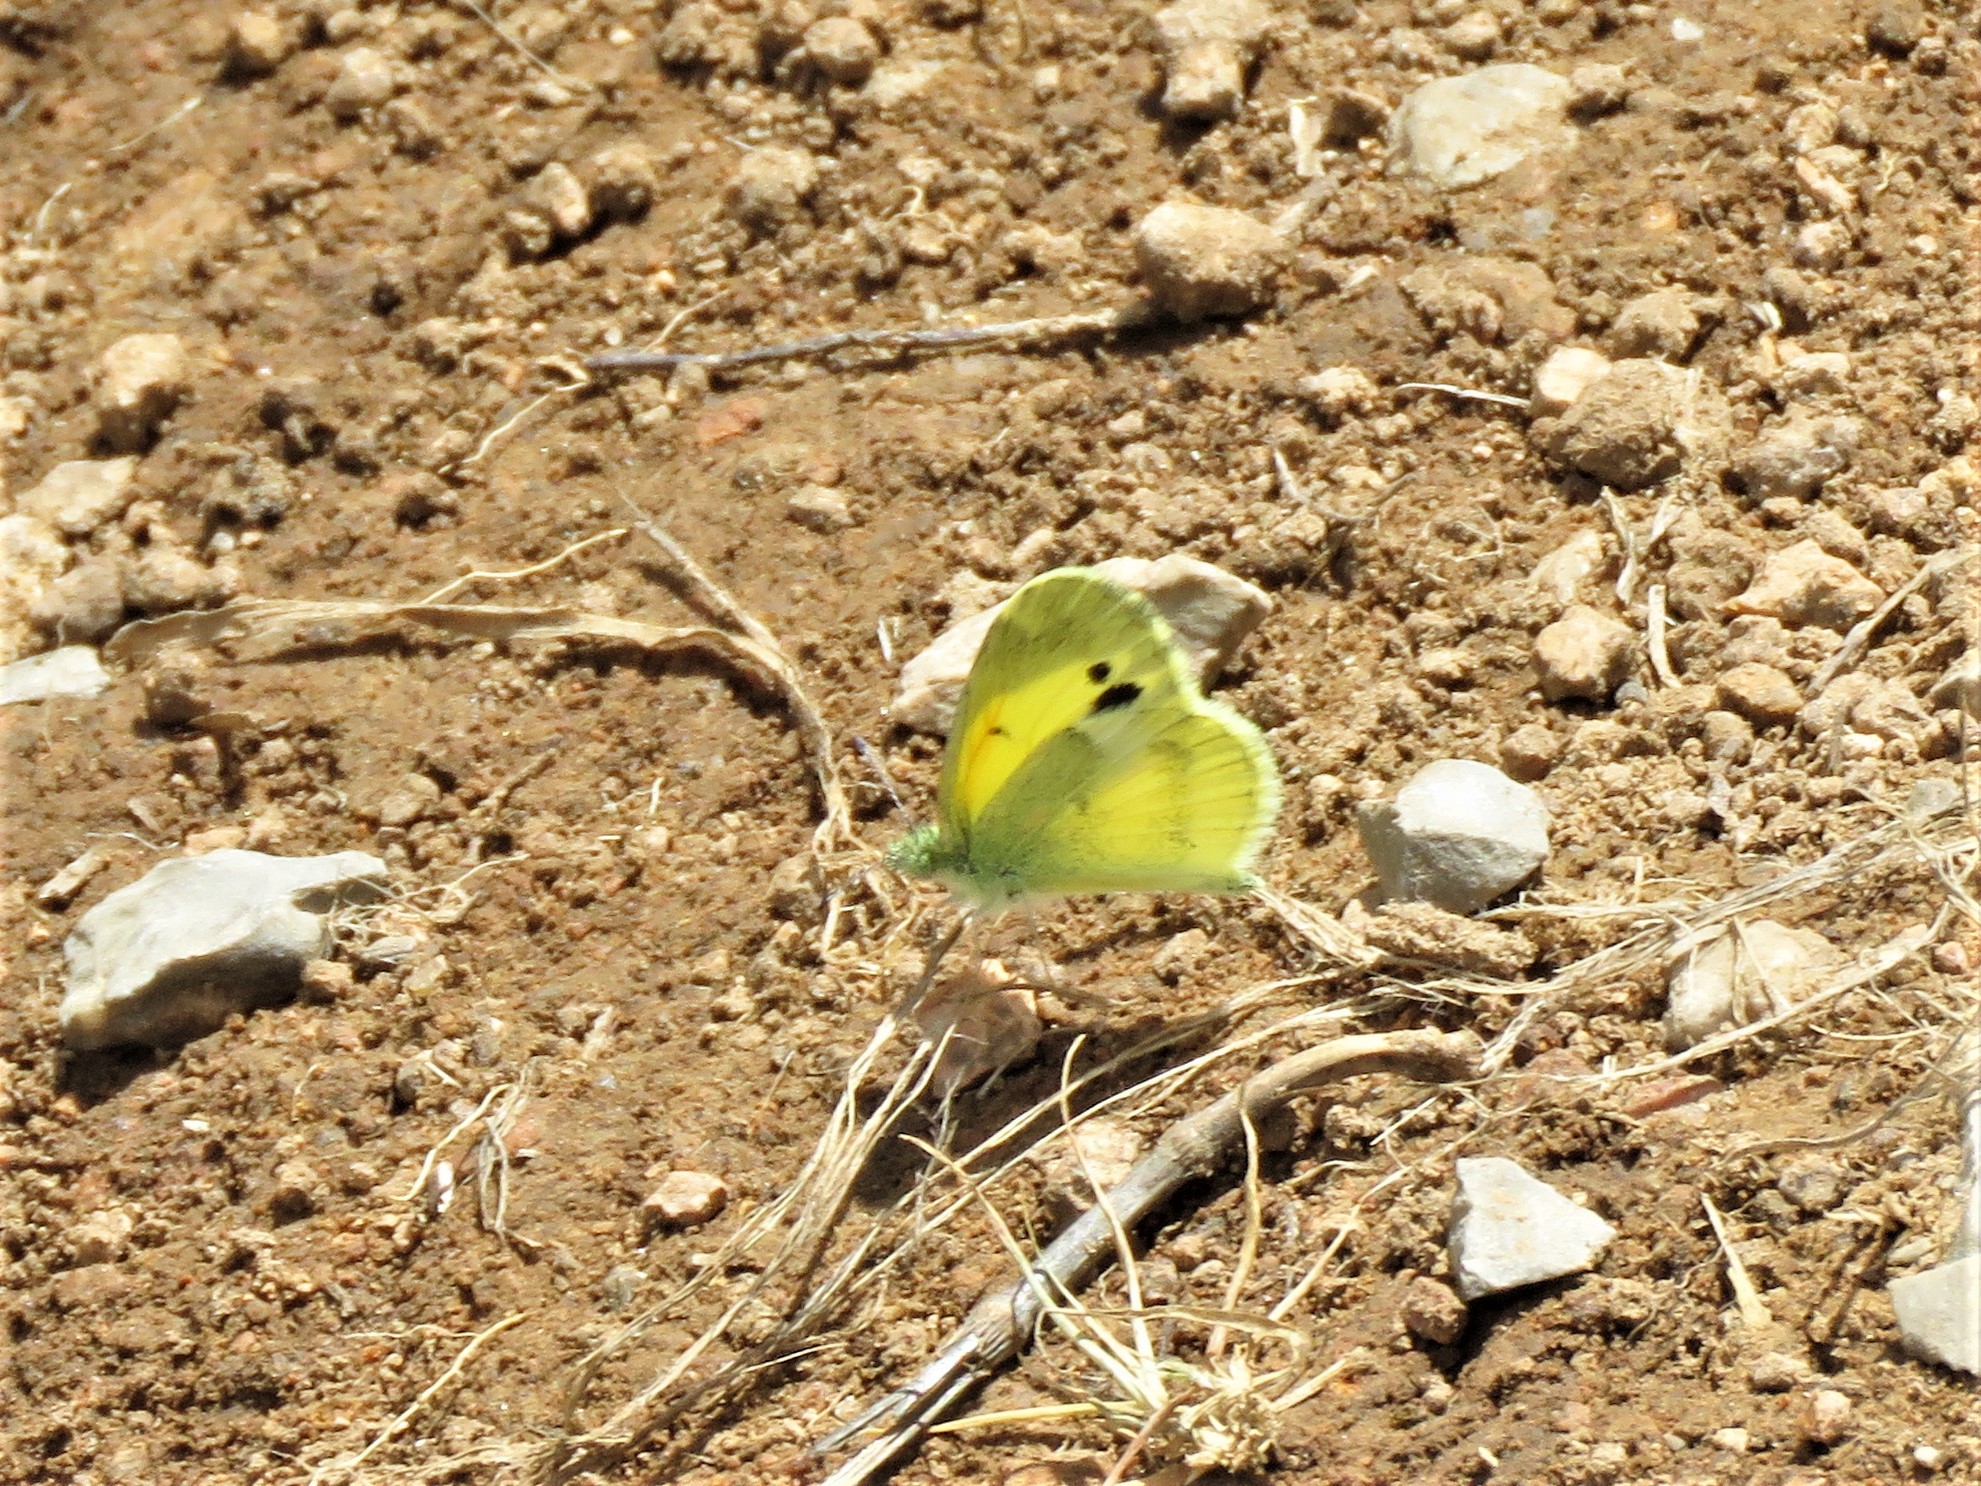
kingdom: Animalia
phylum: Arthropoda
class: Insecta
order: Lepidoptera
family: Pieridae
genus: Nathalis
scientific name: Nathalis iole
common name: Dainty sulphur
